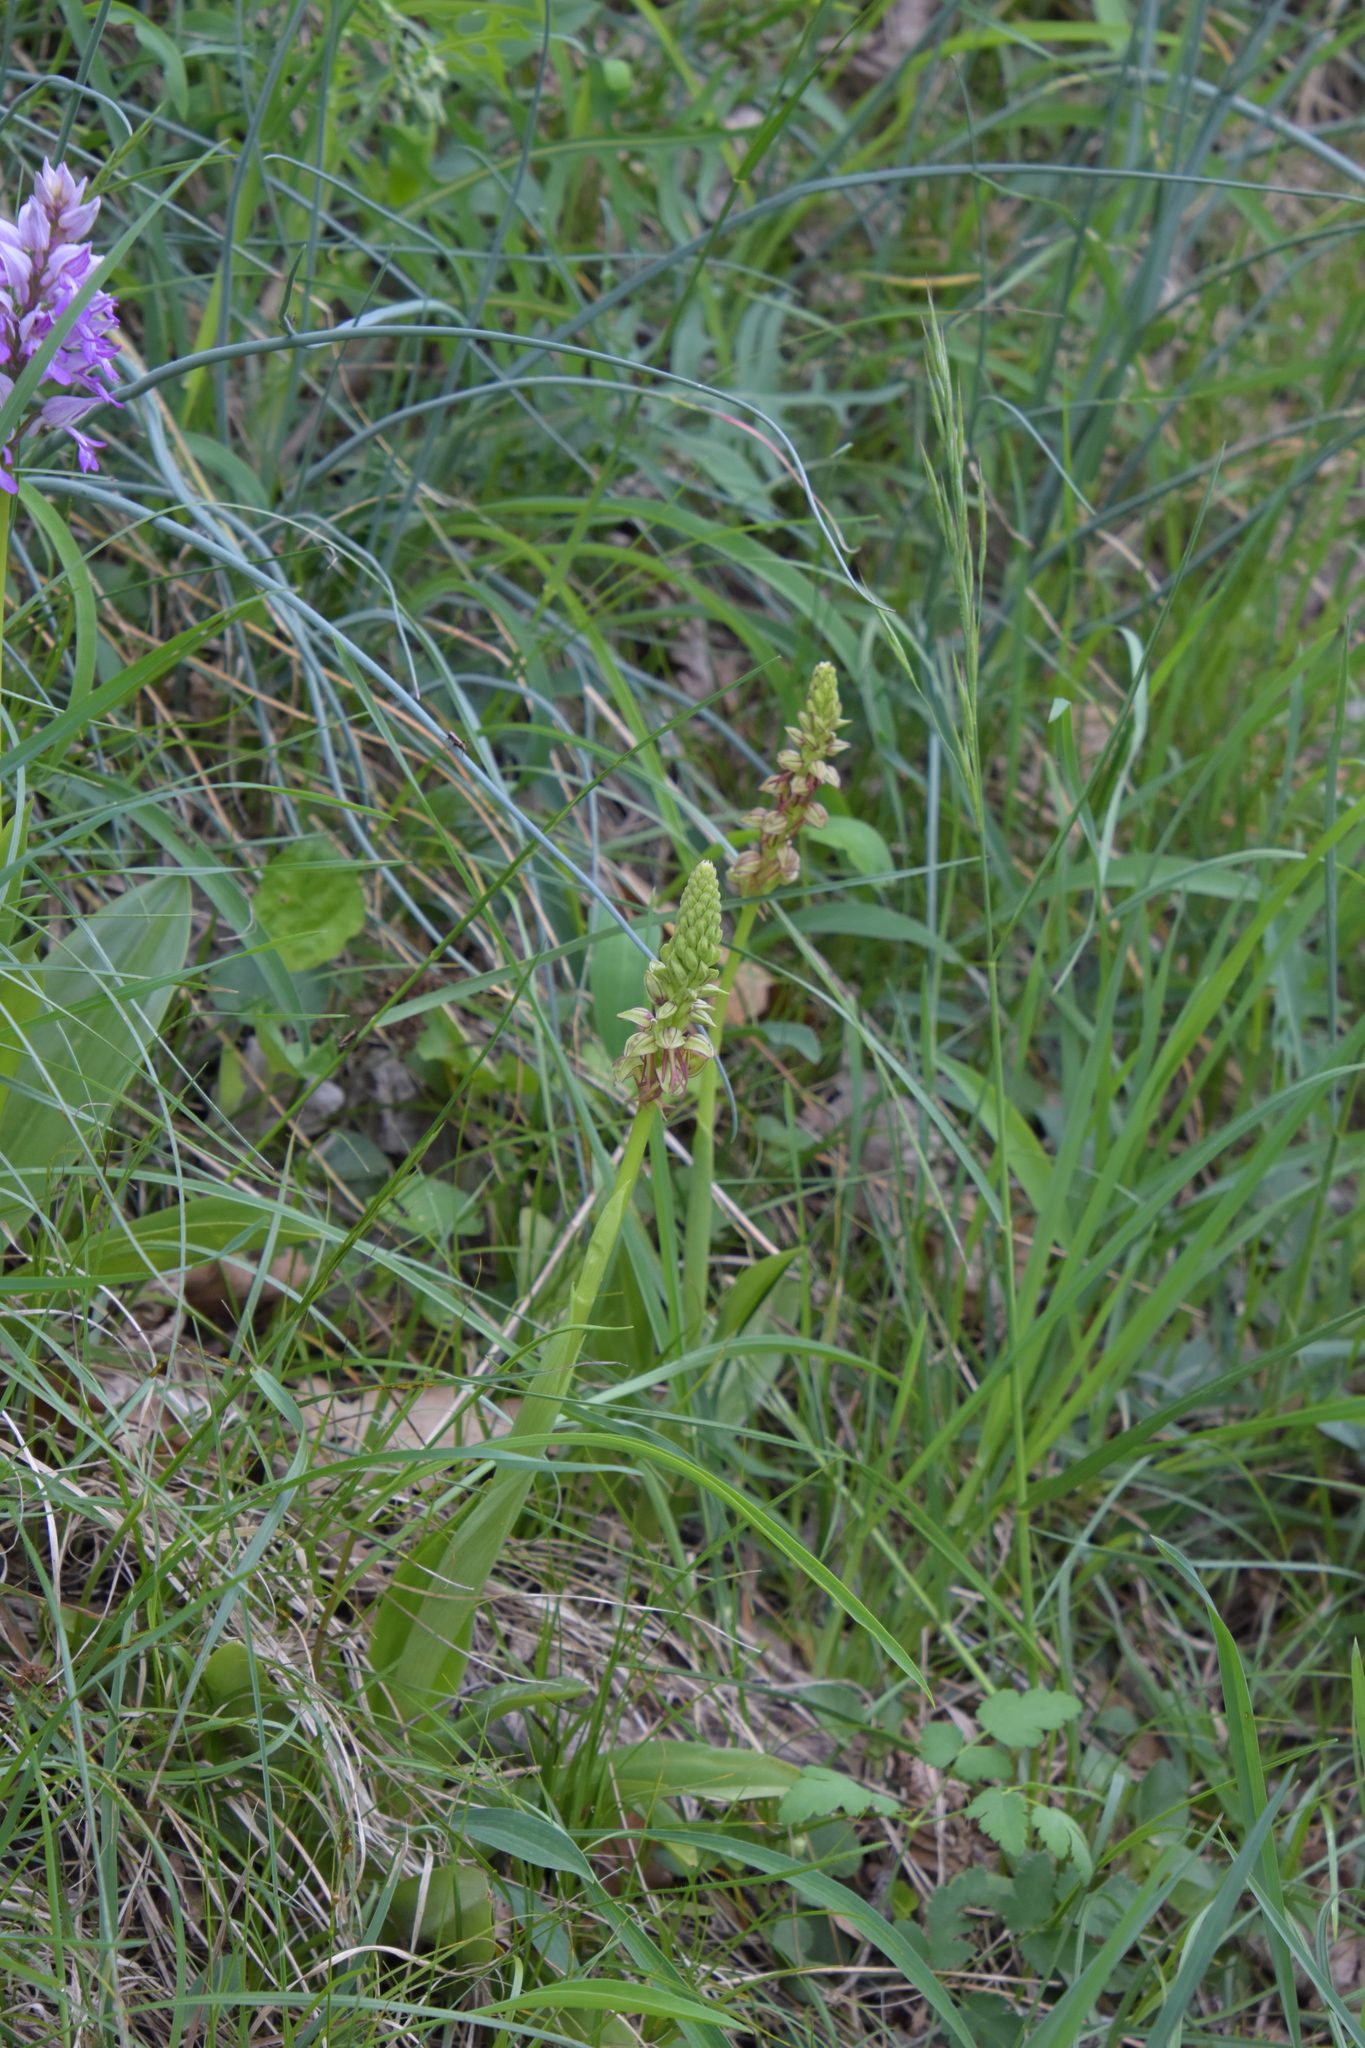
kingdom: Plantae
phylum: Tracheophyta
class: Liliopsida
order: Asparagales
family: Orchidaceae
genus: Orchis
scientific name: Orchis anthropophora
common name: Man orchid
